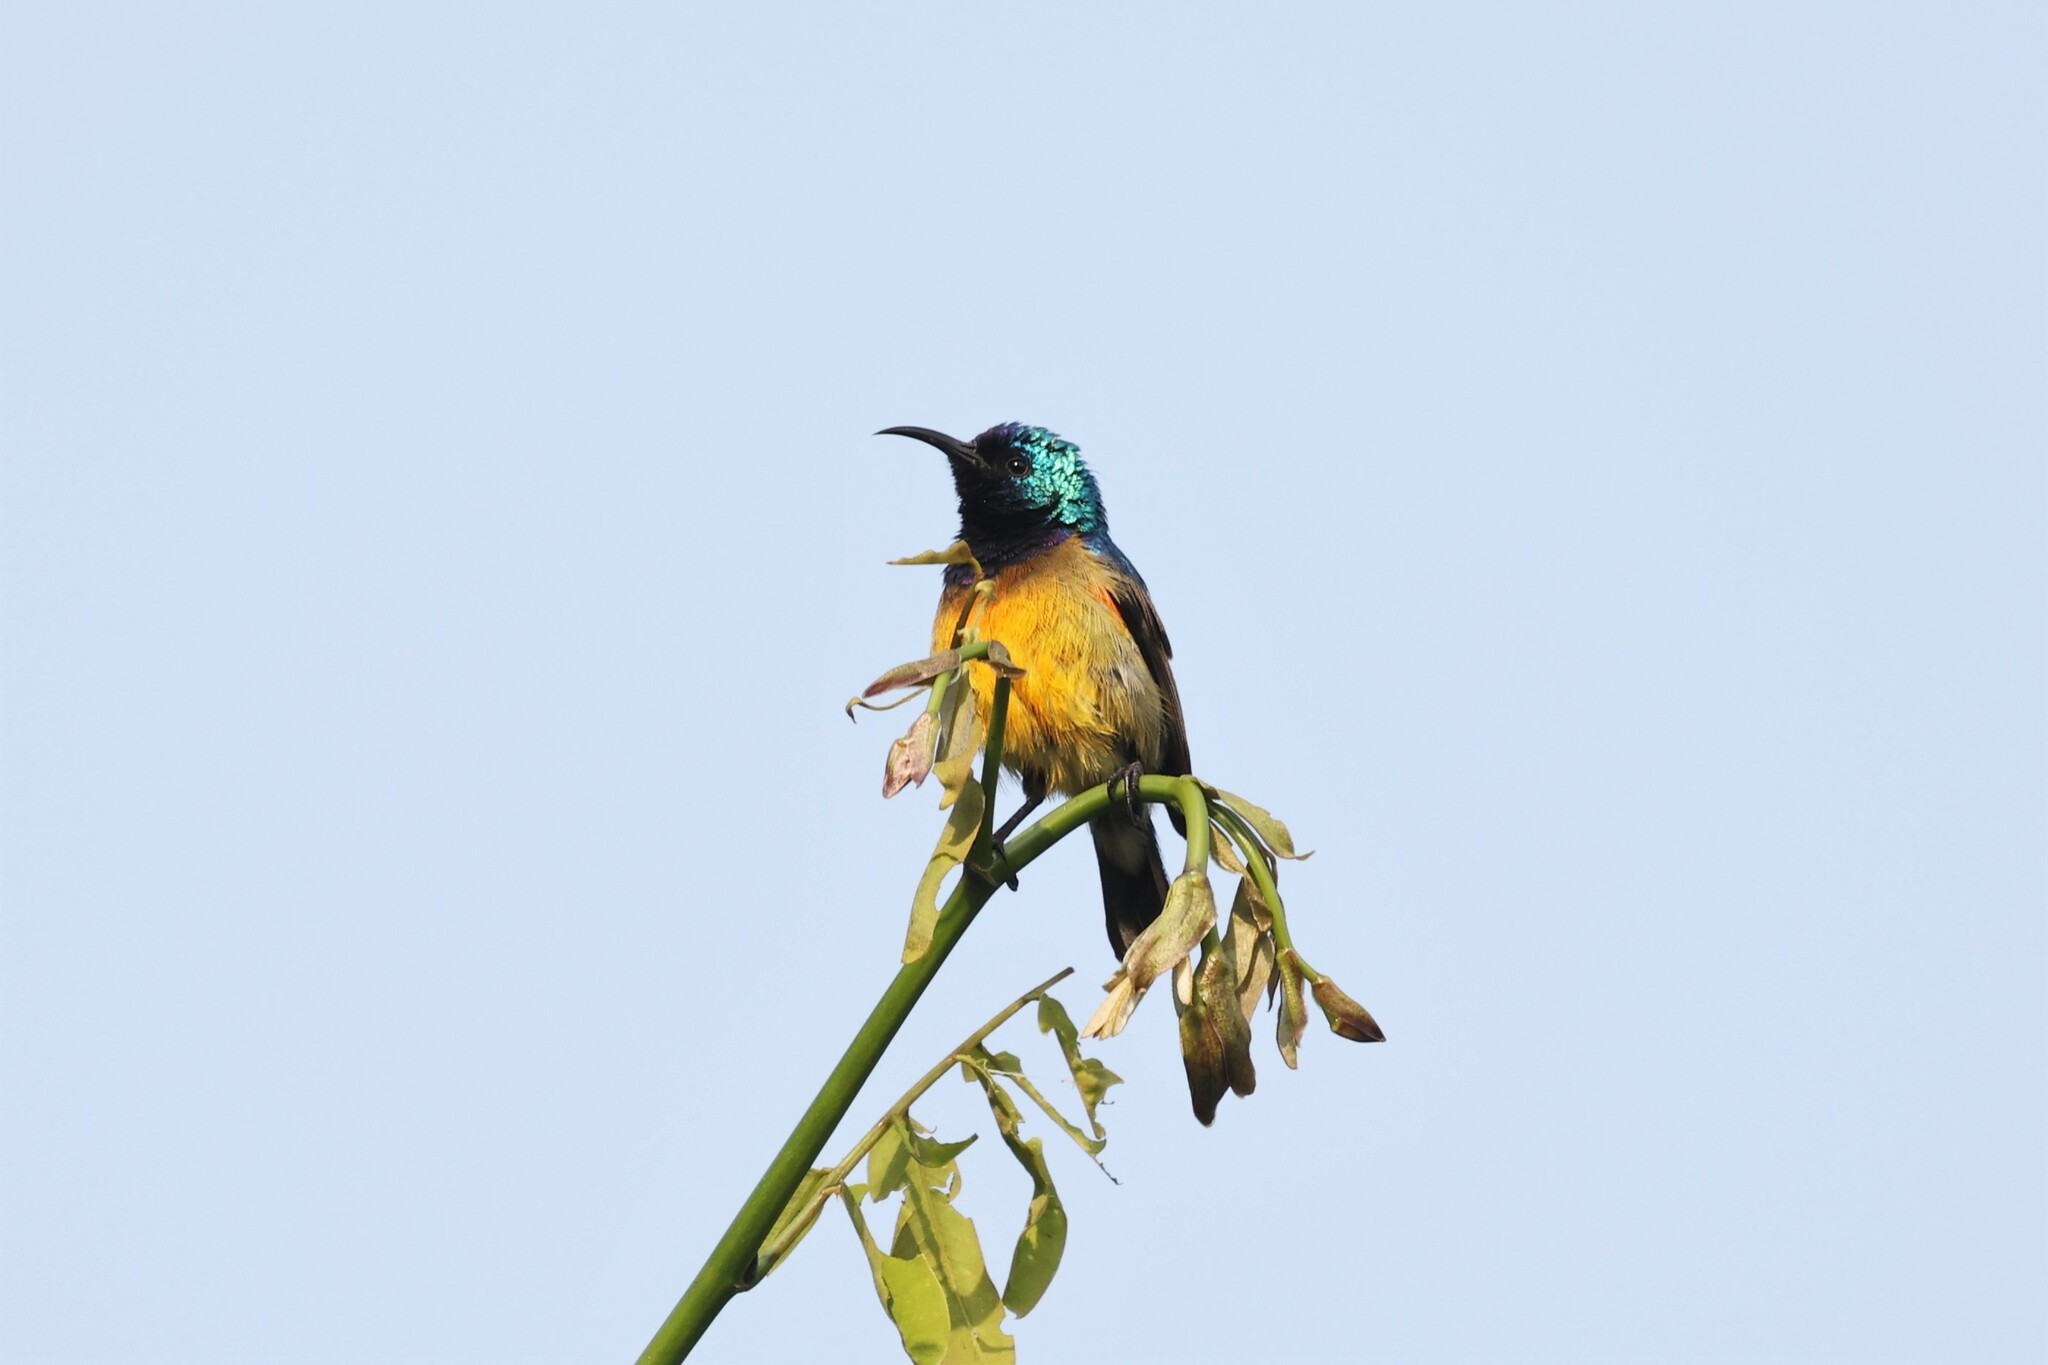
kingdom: Animalia
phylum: Chordata
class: Aves
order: Passeriformes
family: Nectariniidae
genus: Cinnyris
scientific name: Cinnyris venustus
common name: Variable sunbird
